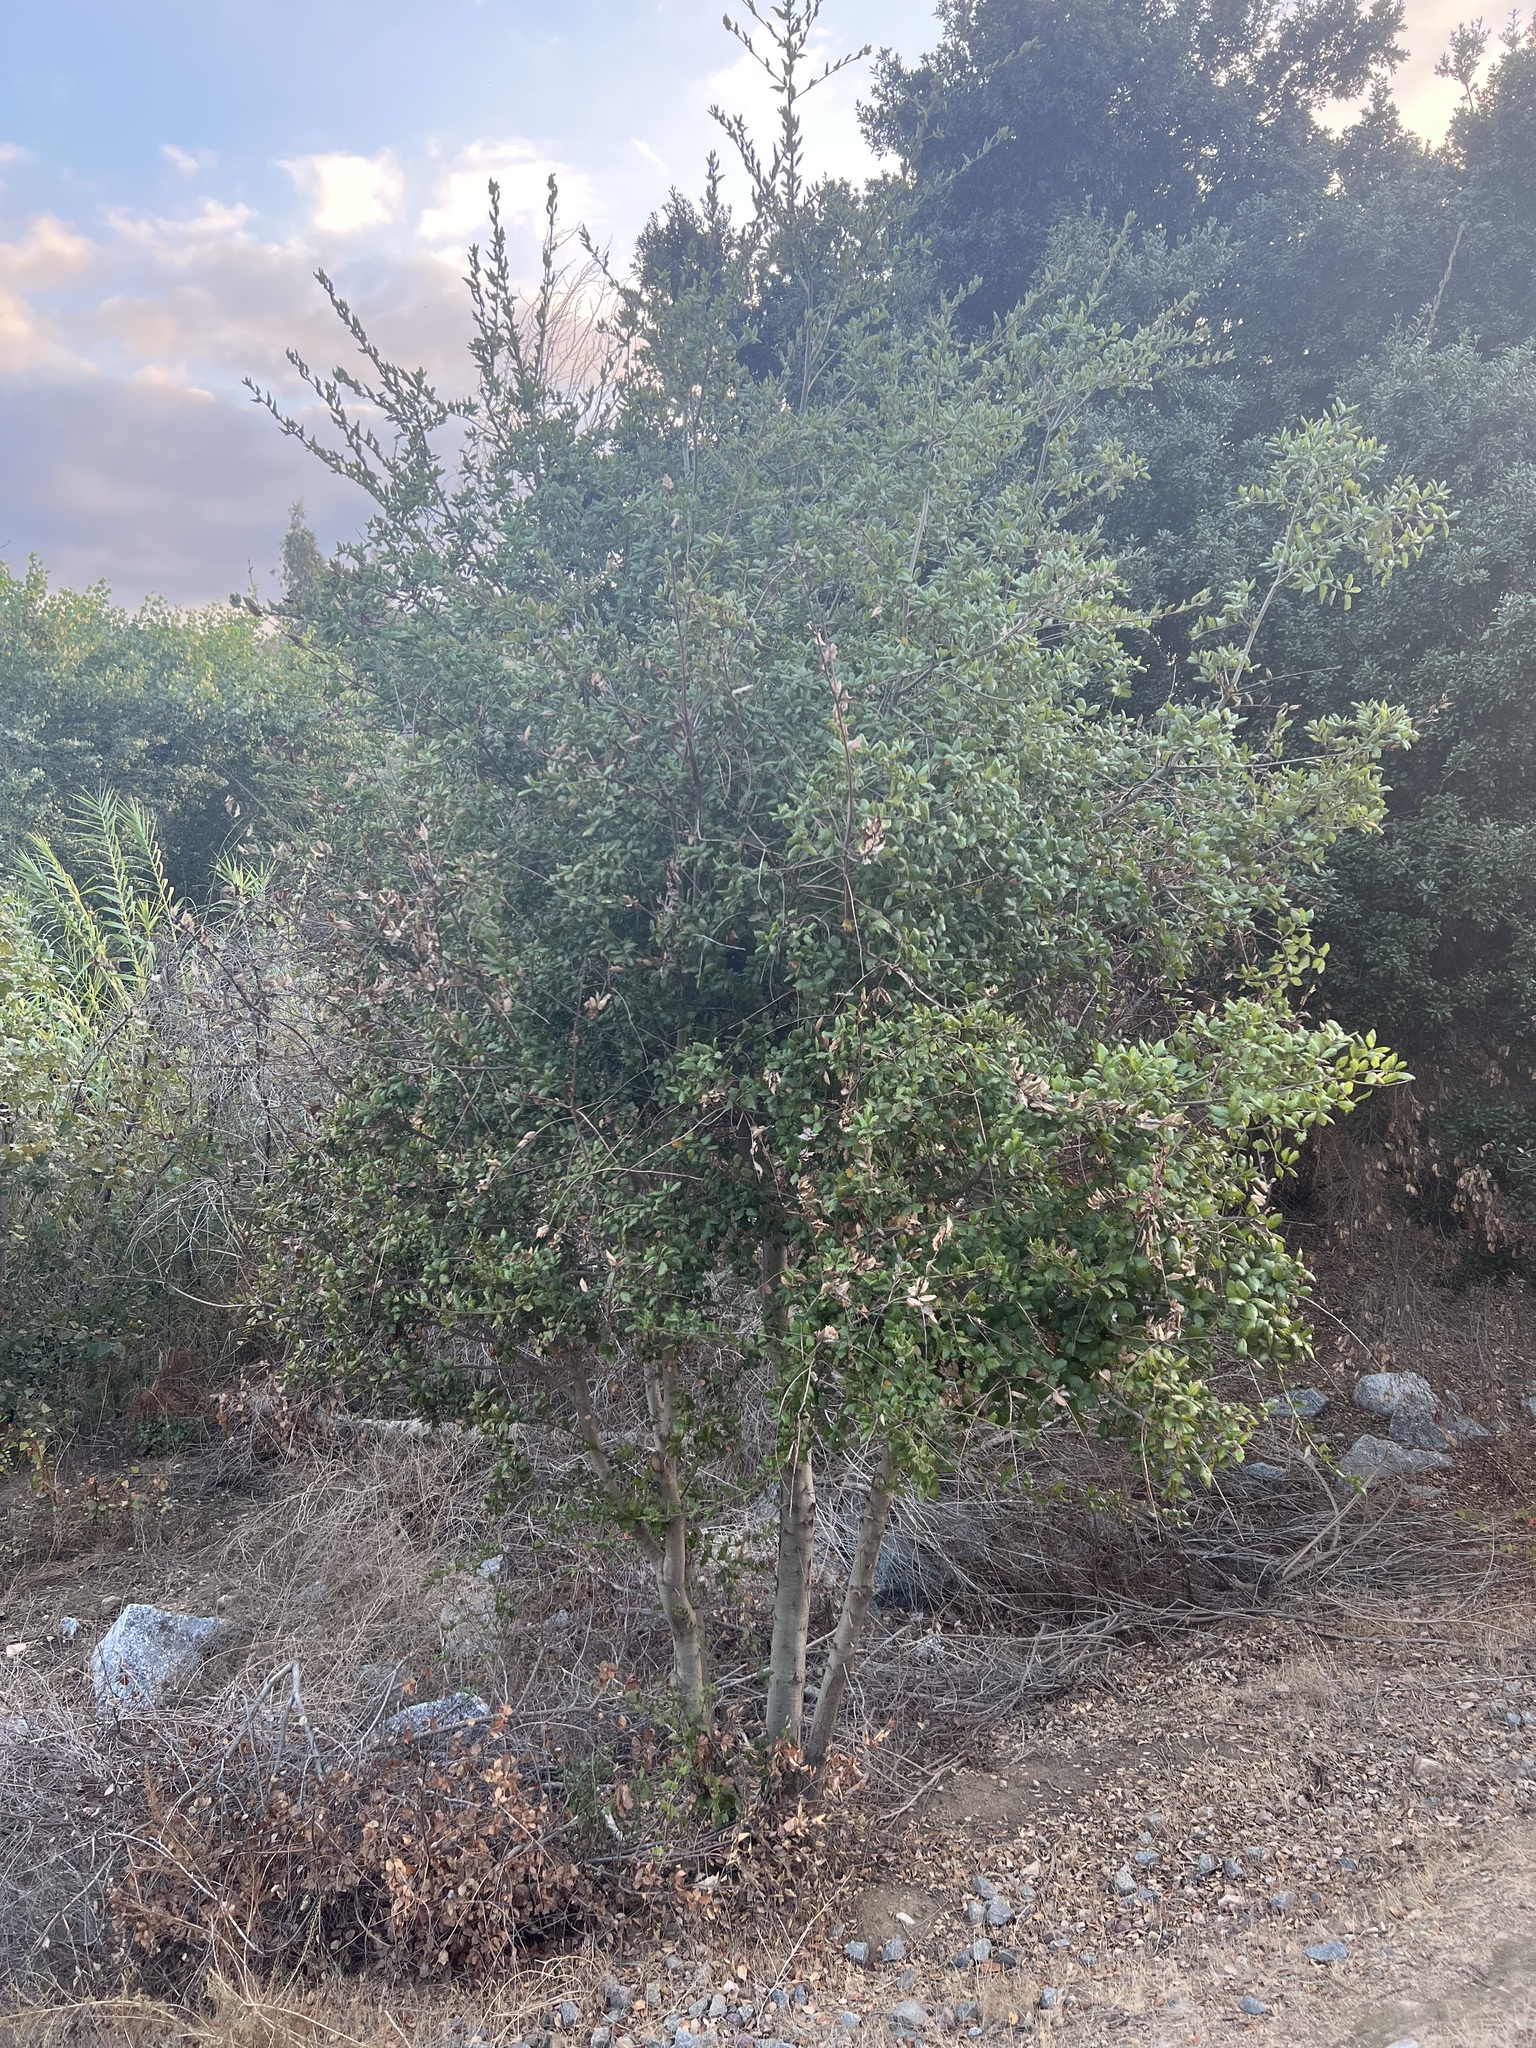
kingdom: Plantae
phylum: Tracheophyta
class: Magnoliopsida
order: Fagales
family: Fagaceae
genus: Quercus
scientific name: Quercus agrifolia
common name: California live oak
